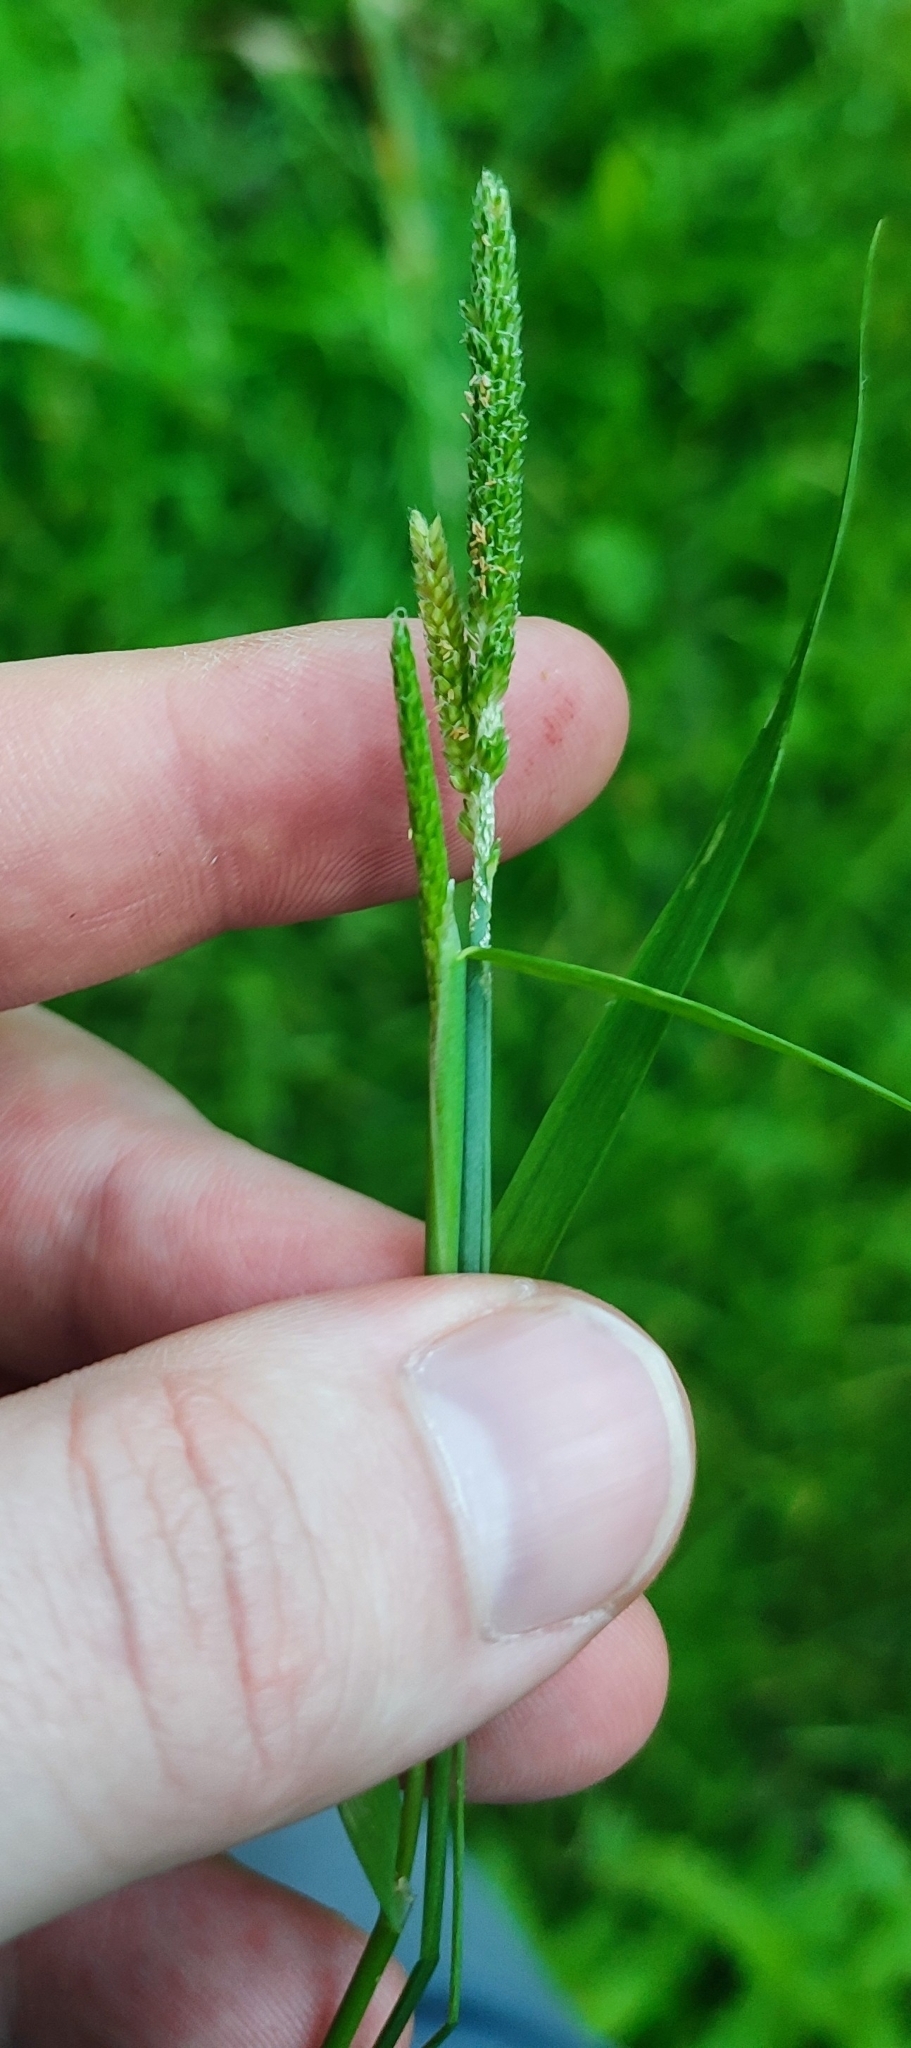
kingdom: Plantae
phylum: Tracheophyta
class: Liliopsida
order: Poales
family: Poaceae
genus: Alopecurus
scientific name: Alopecurus aequalis
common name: Orange foxtail
